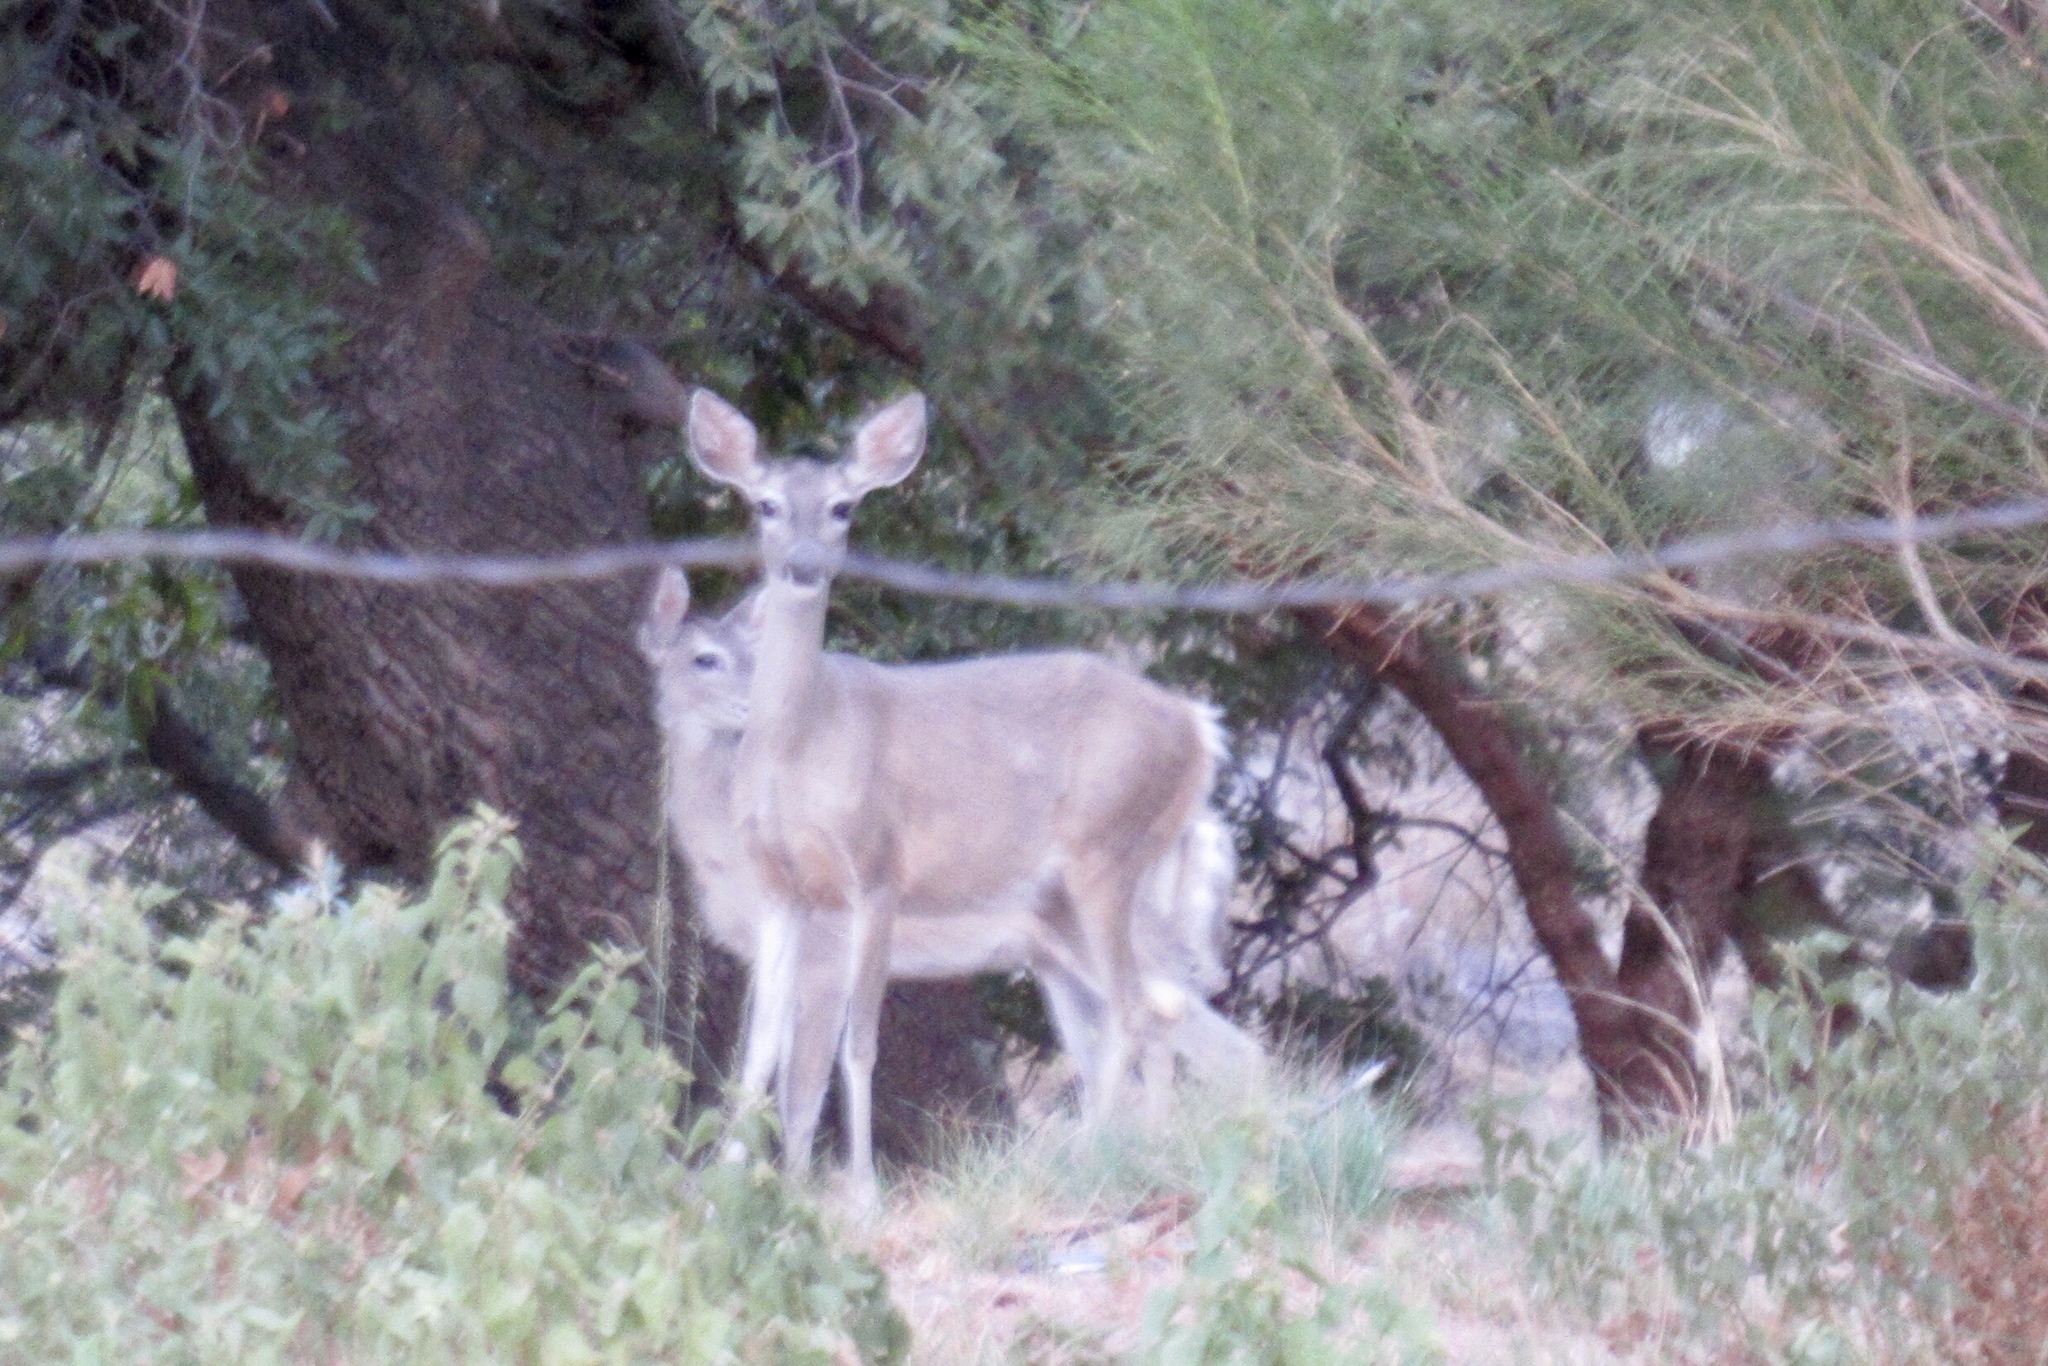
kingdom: Animalia
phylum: Chordata
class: Mammalia
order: Artiodactyla
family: Cervidae
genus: Odocoileus
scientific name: Odocoileus virginianus
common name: White-tailed deer
